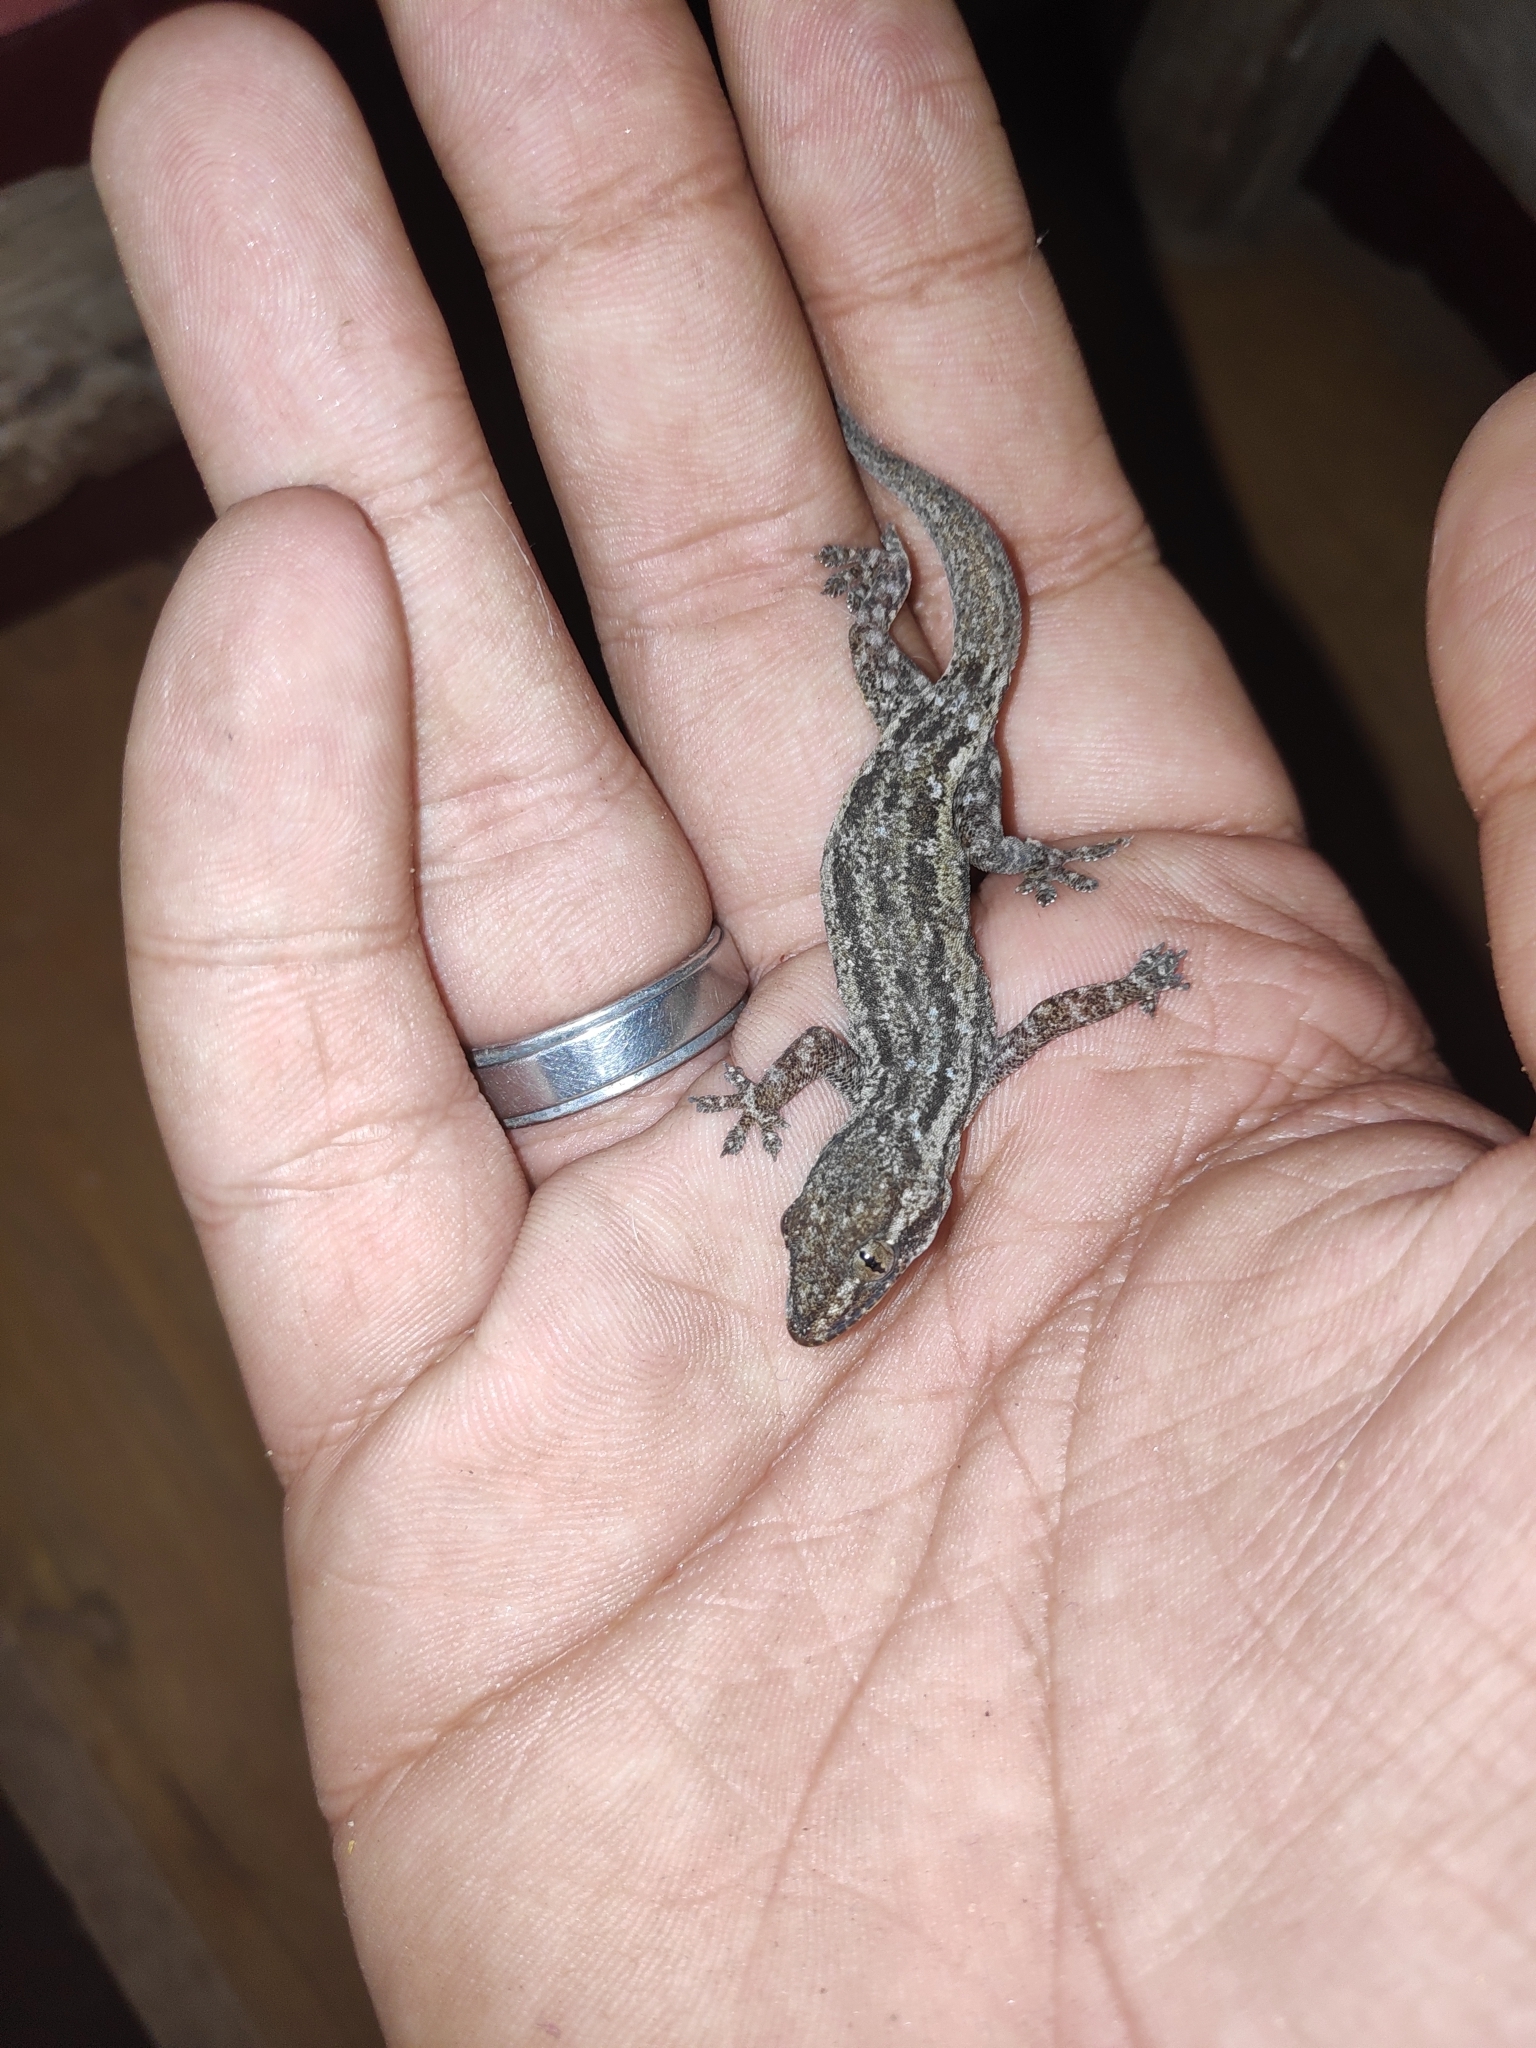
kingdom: Animalia
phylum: Chordata
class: Squamata
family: Gekkonidae
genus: Hemidactylus
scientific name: Hemidactylus frenatus
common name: Common house gecko
